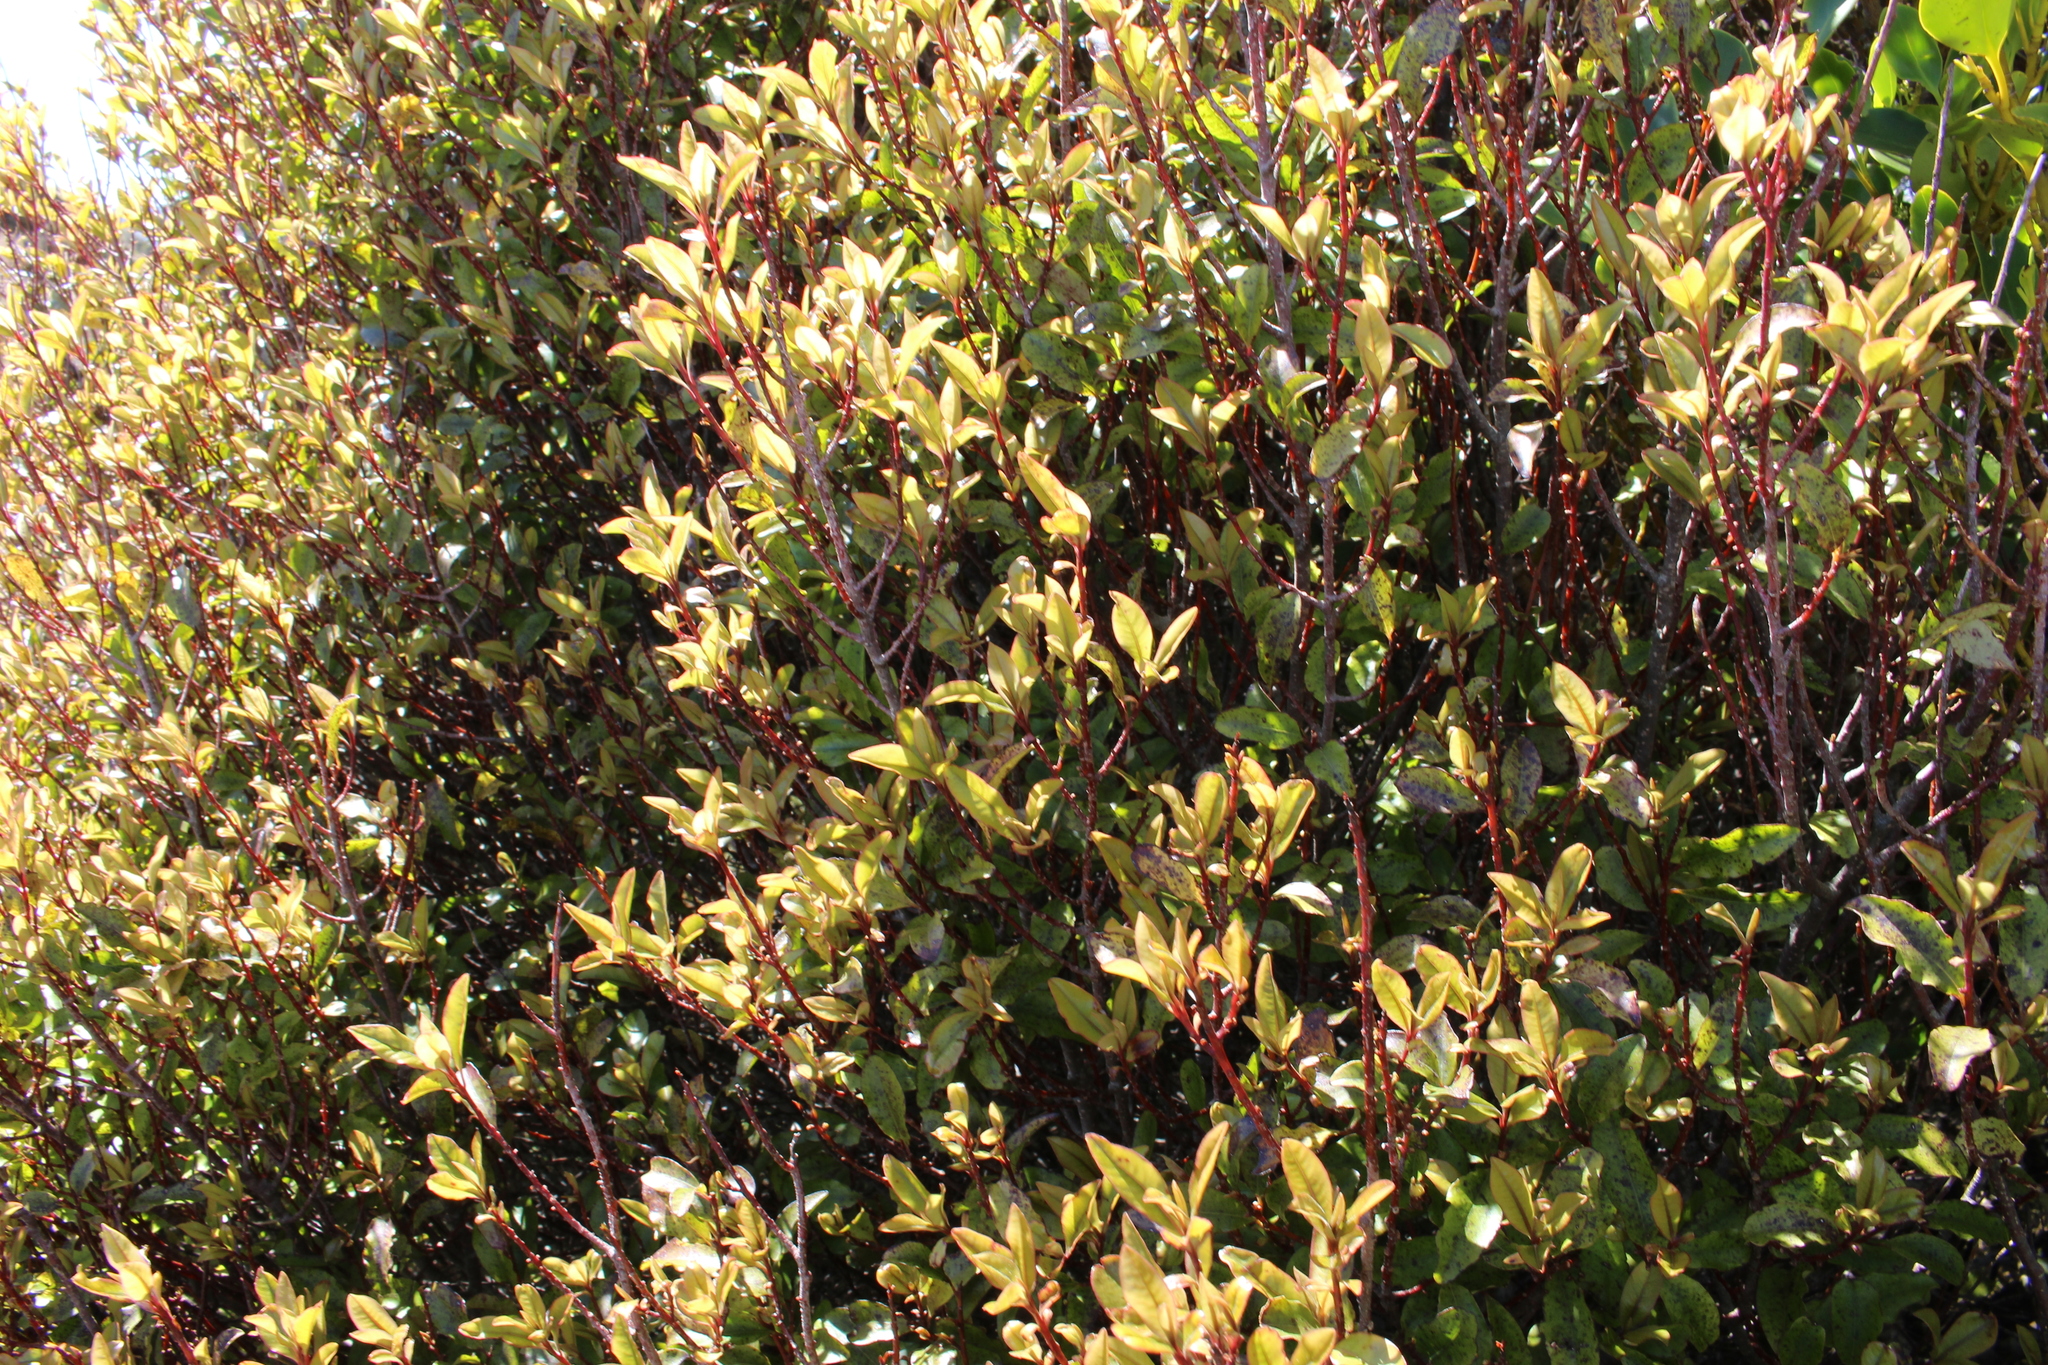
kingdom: Plantae
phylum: Tracheophyta
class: Magnoliopsida
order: Ericales
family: Primulaceae
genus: Myrsine
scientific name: Myrsine australis
